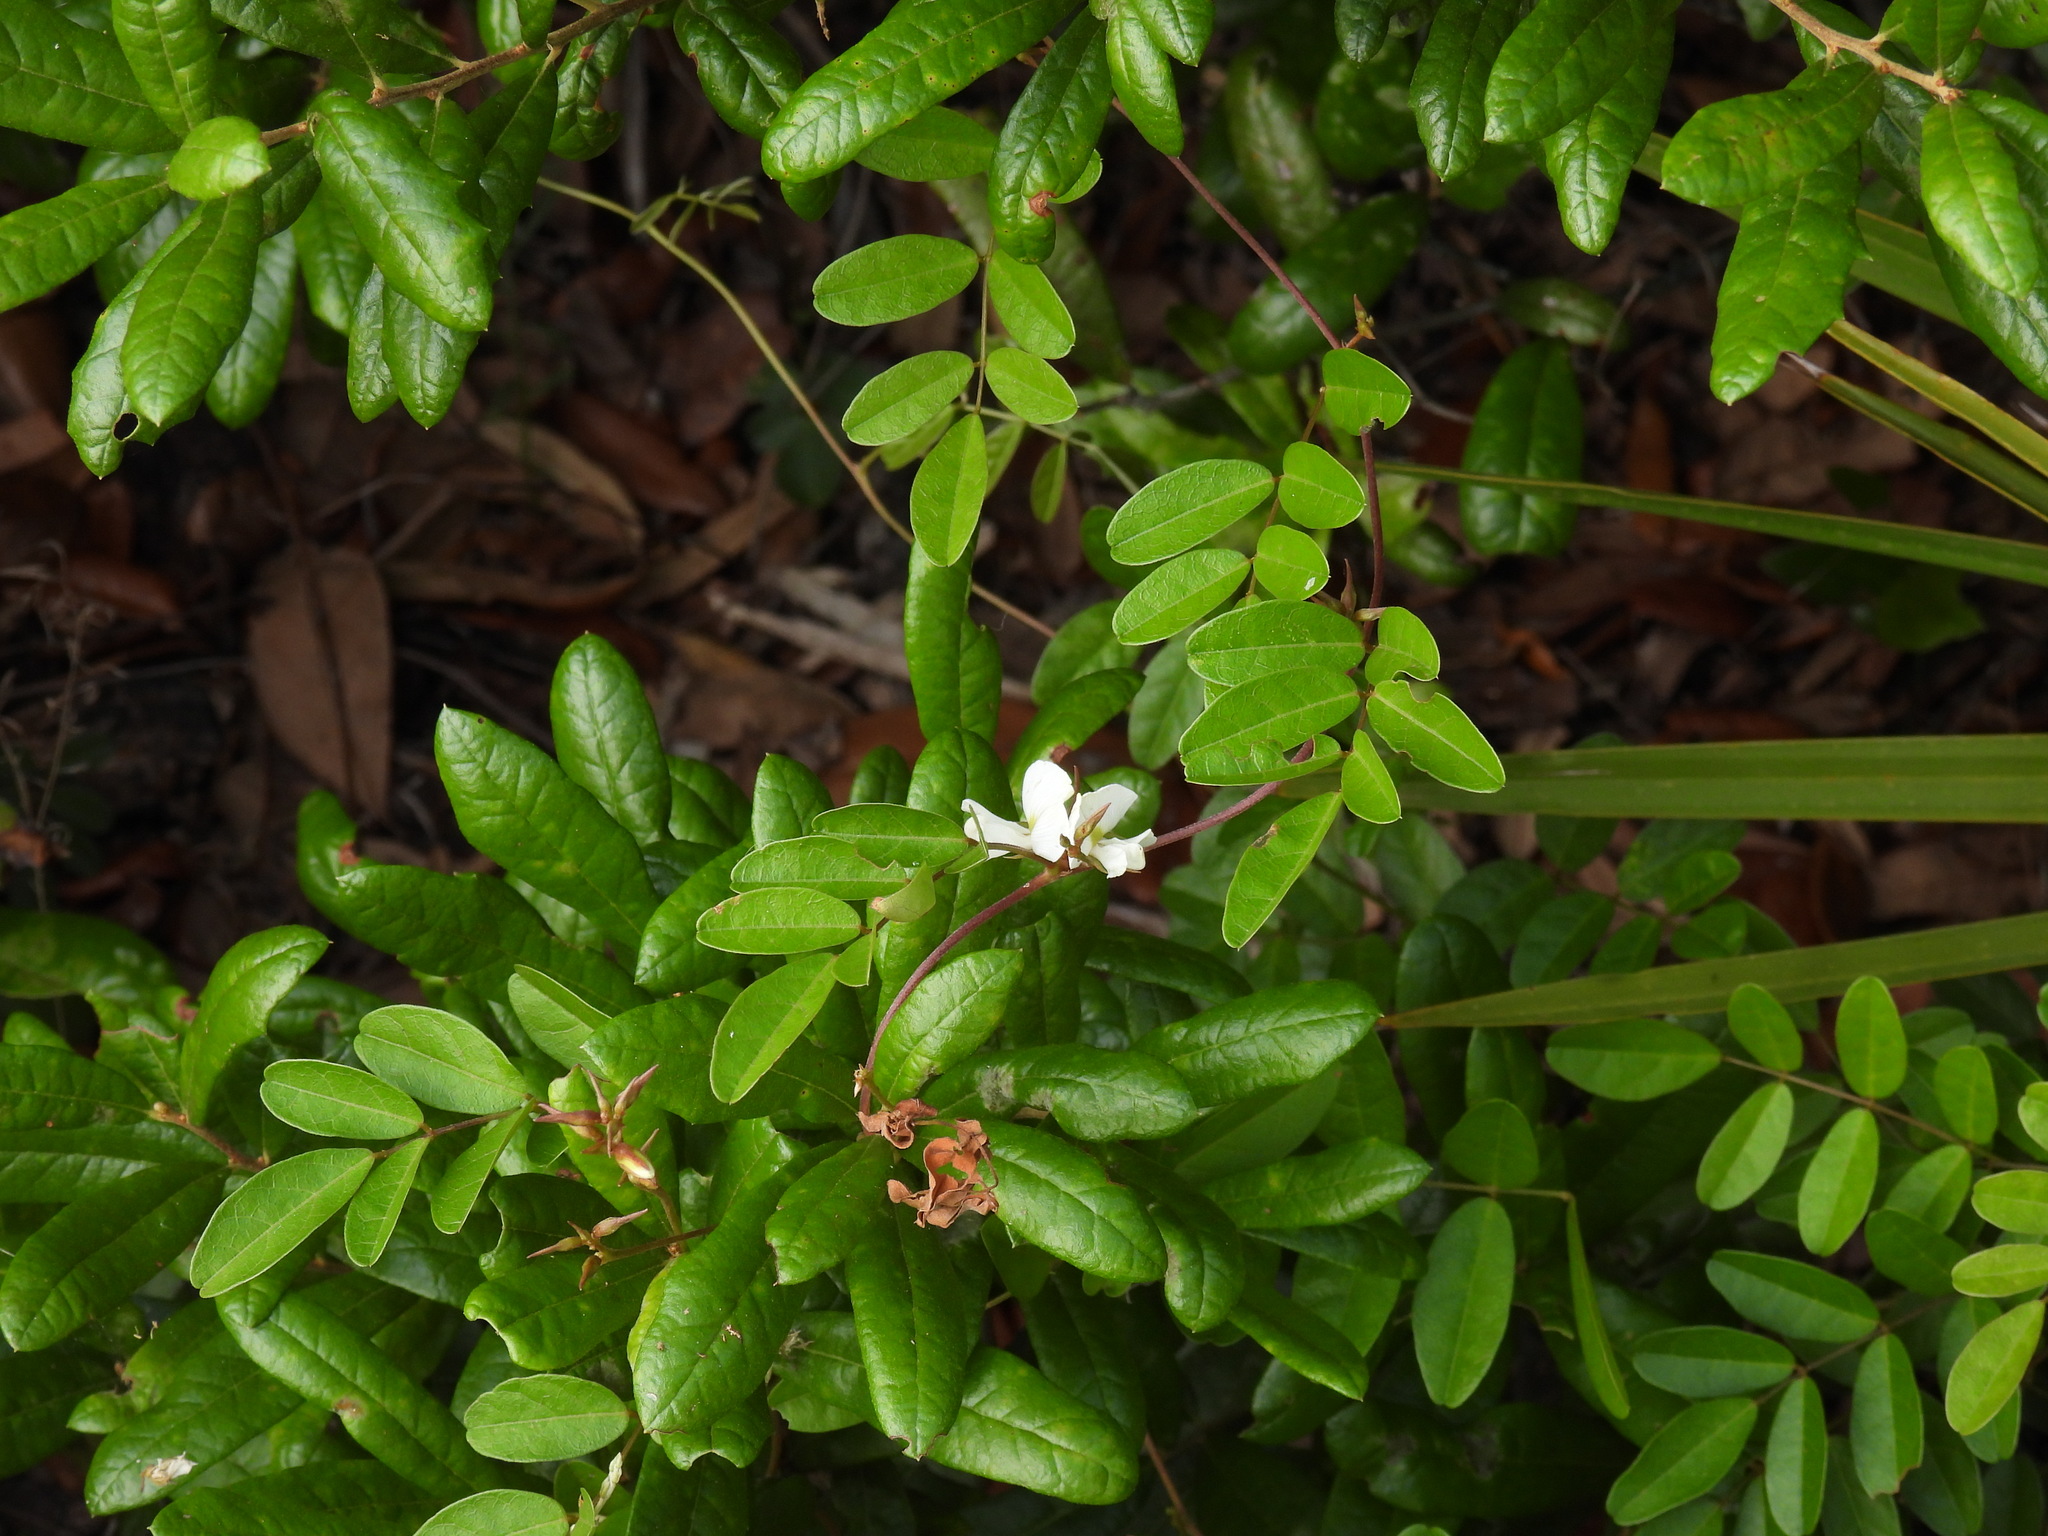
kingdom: Plantae
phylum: Tracheophyta
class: Magnoliopsida
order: Fabales
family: Fabaceae
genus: Galactia
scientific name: Galactia elliottii
